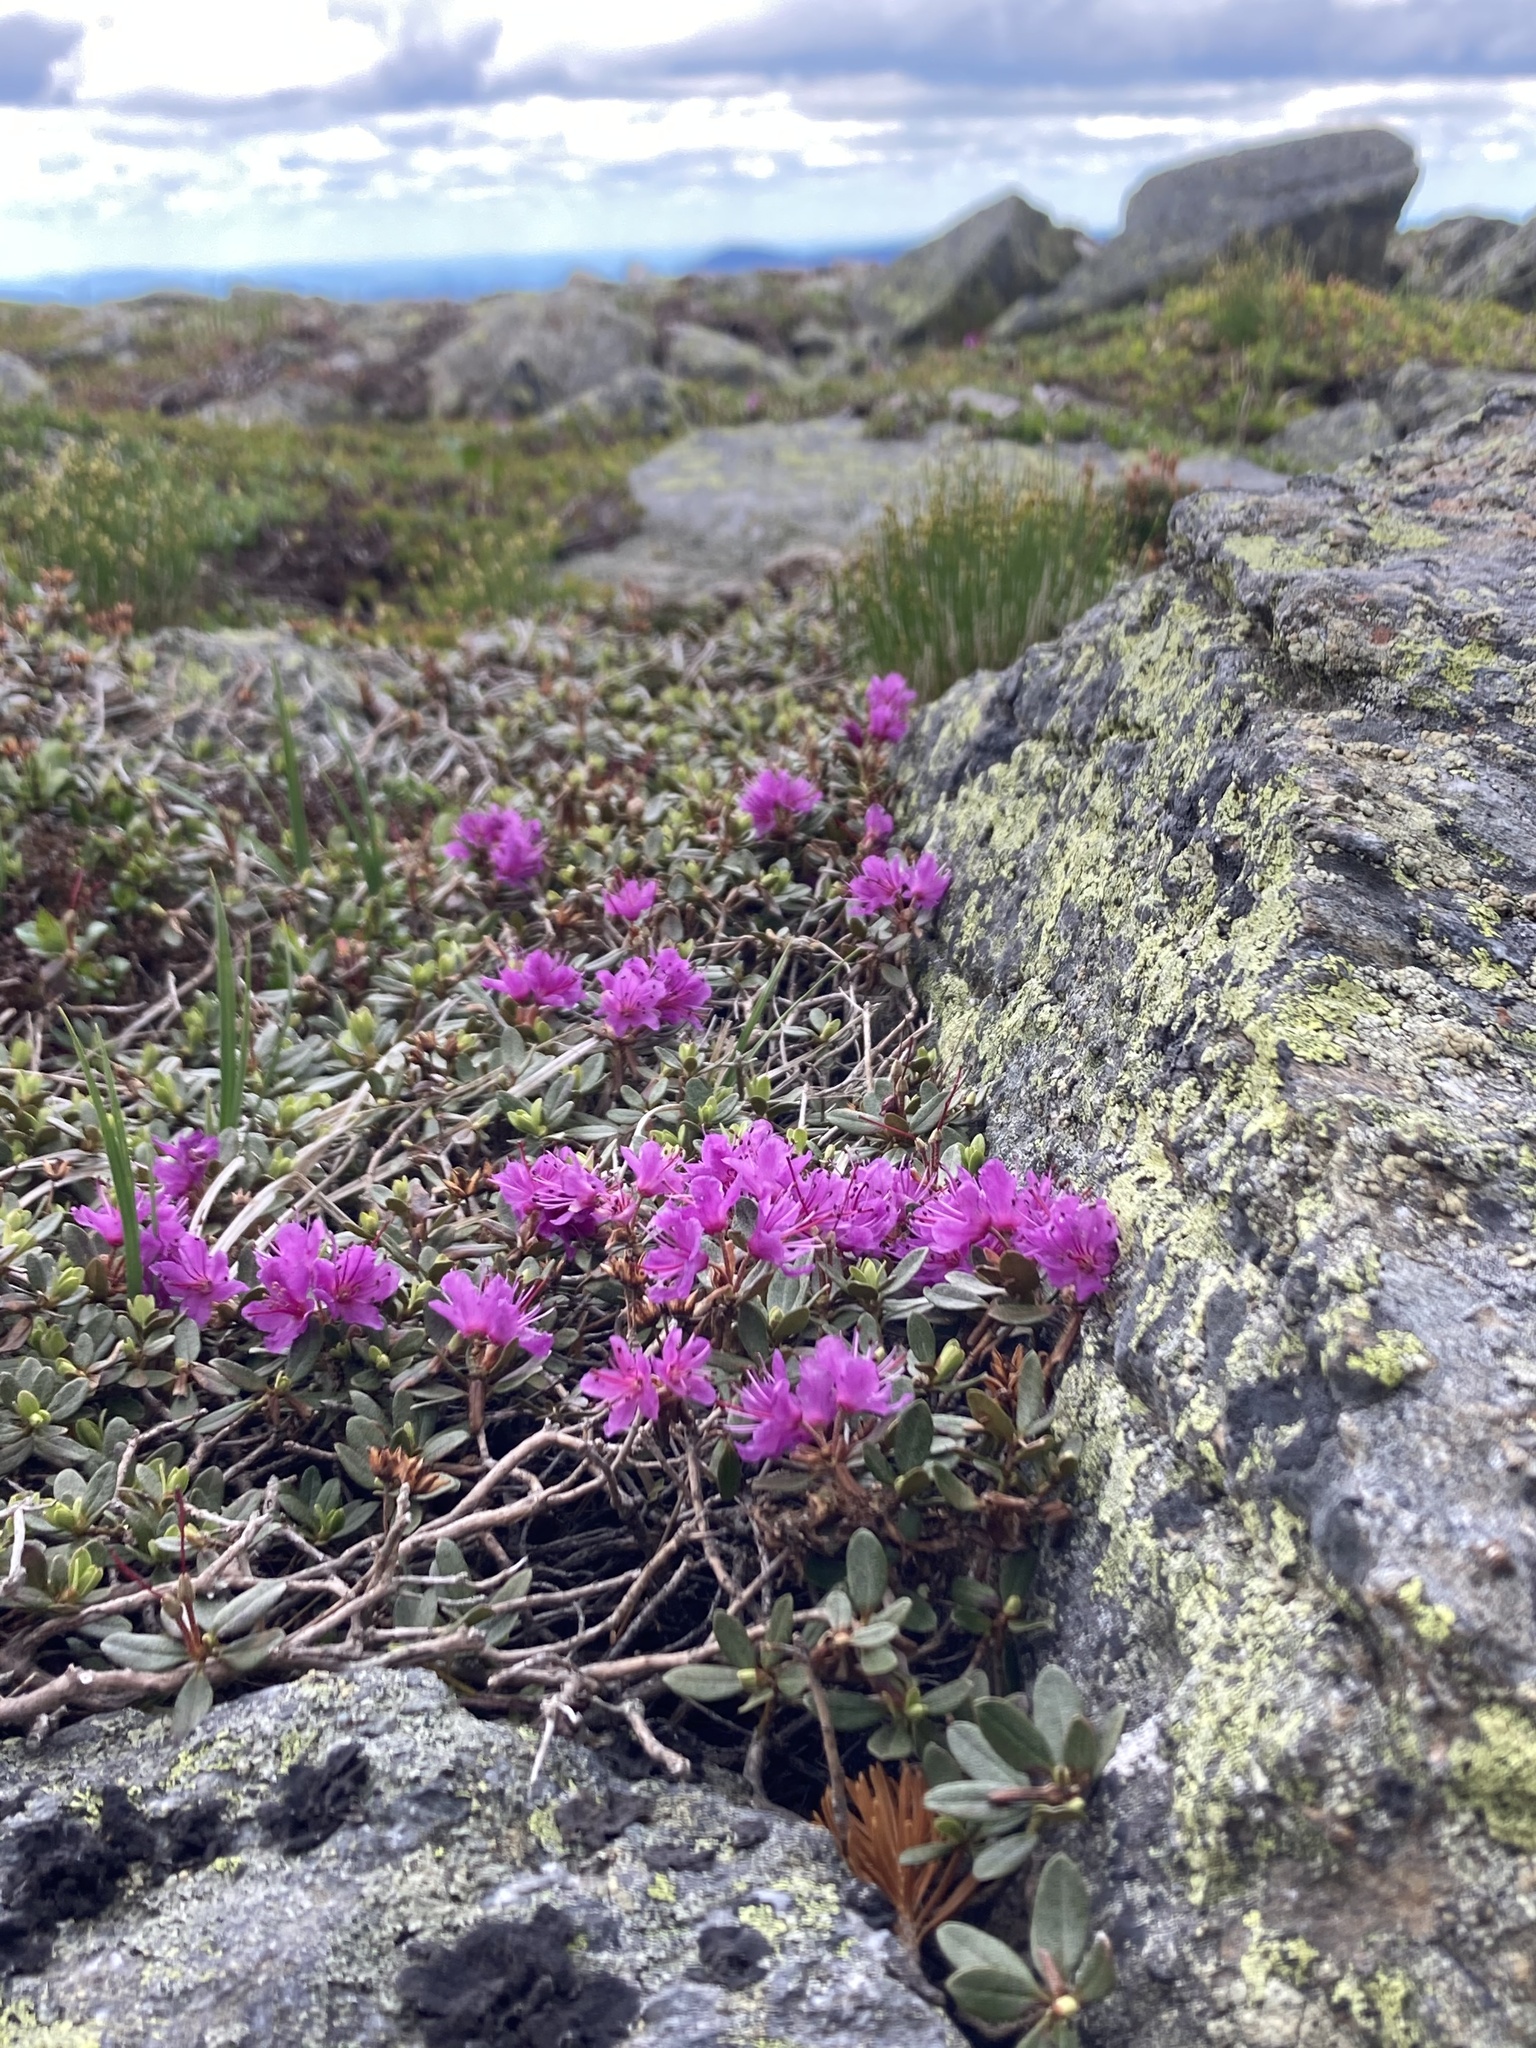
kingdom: Plantae
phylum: Tracheophyta
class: Magnoliopsida
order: Ericales
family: Ericaceae
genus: Rhododendron
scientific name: Rhododendron lapponicum
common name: Lapland rhododendron
